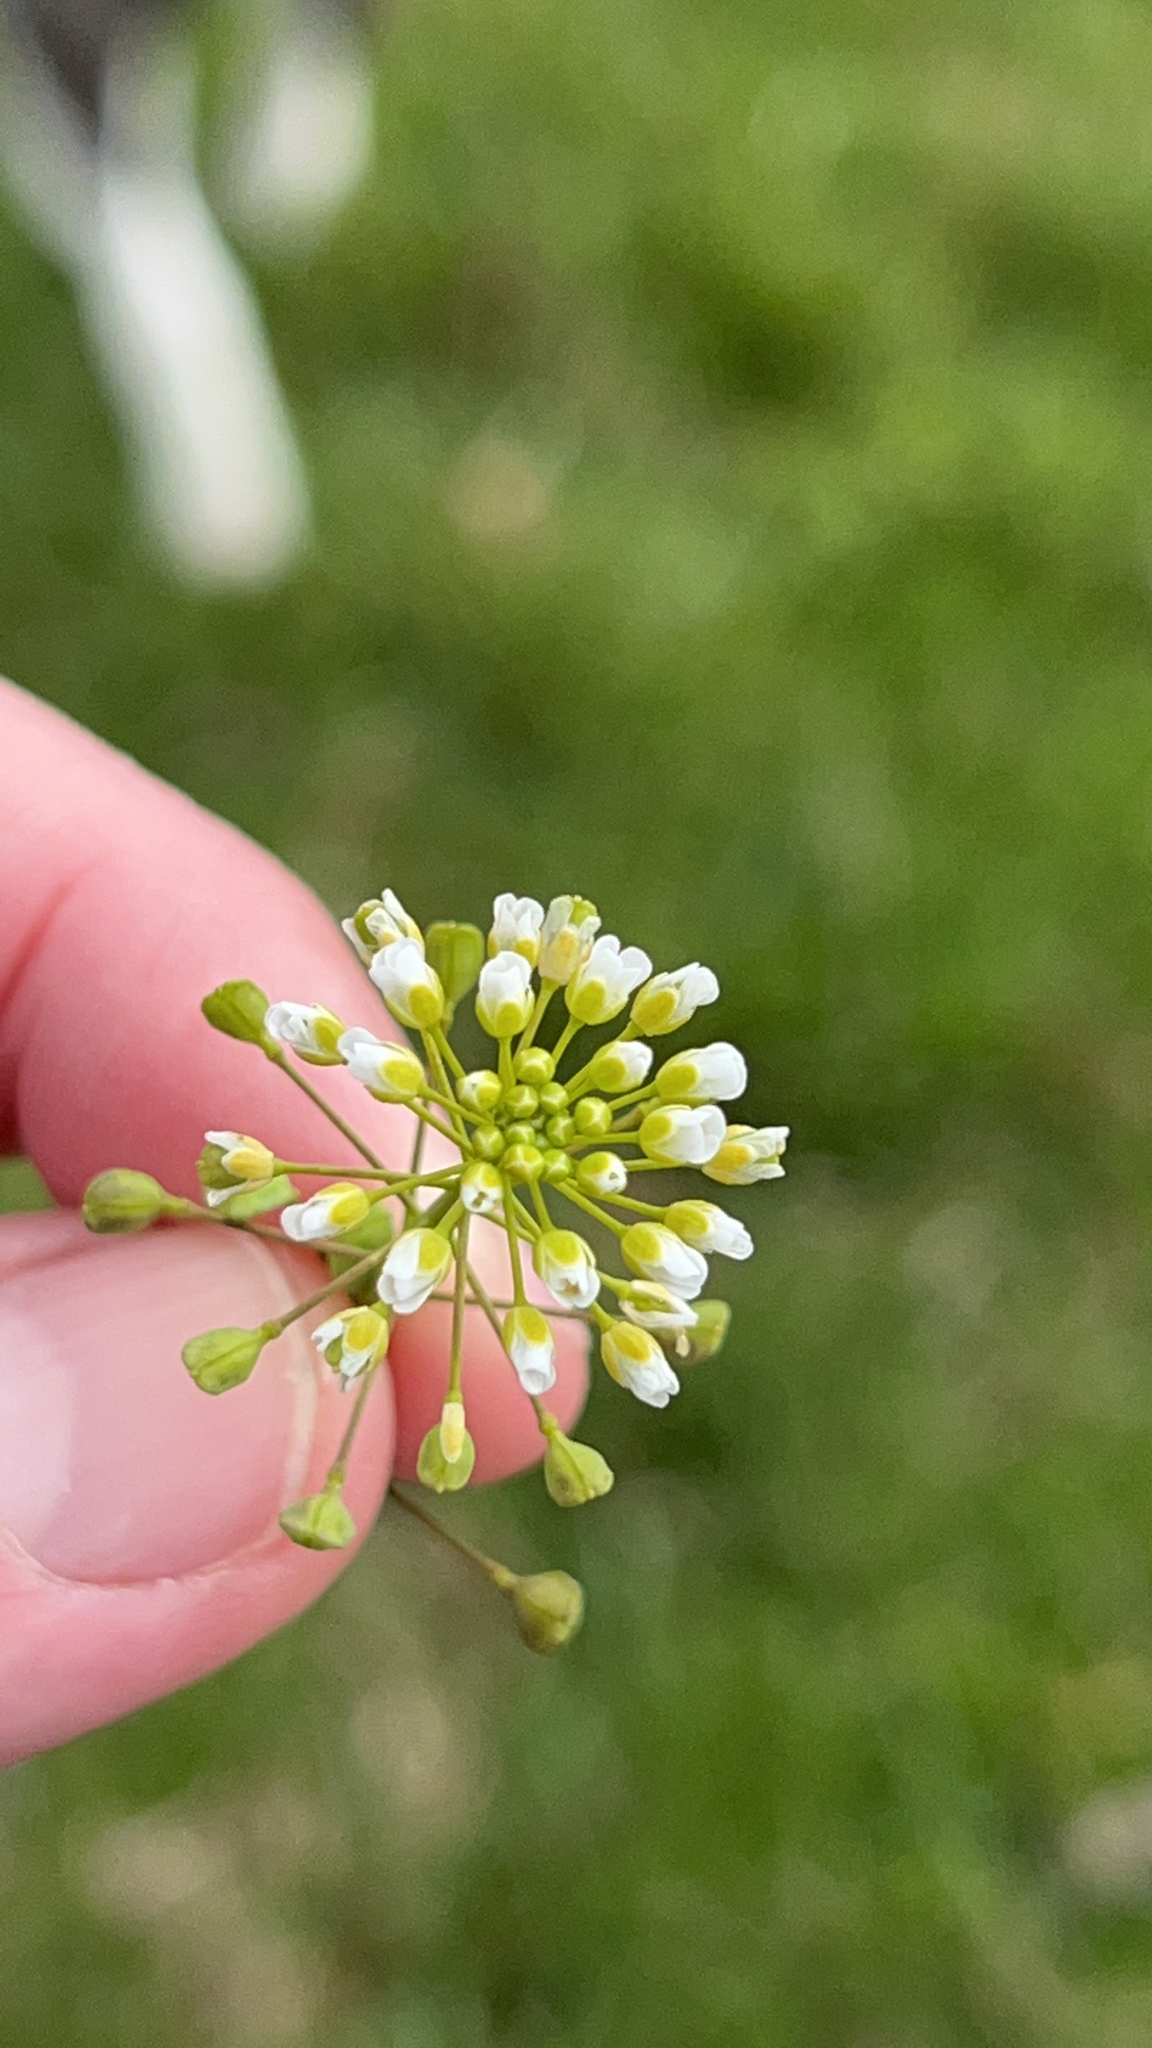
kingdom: Plantae
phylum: Tracheophyta
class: Magnoliopsida
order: Brassicales
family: Brassicaceae
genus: Mummenhoffia
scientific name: Mummenhoffia alliacea
